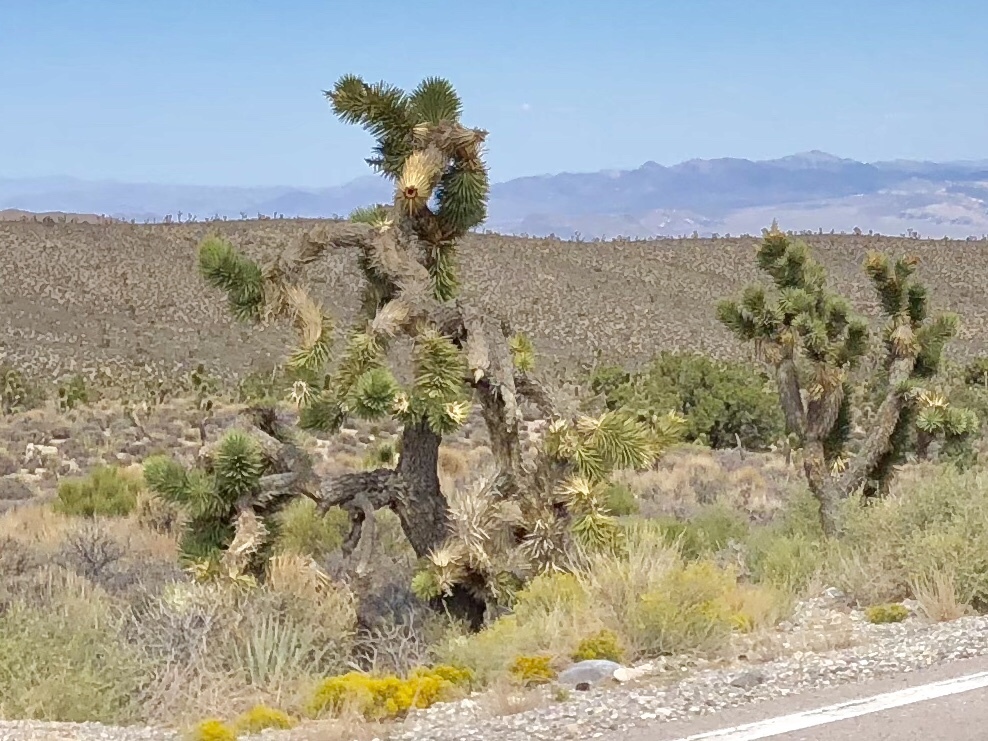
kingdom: Plantae
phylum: Tracheophyta
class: Liliopsida
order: Asparagales
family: Asparagaceae
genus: Yucca
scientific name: Yucca brevifolia
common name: Joshua tree
